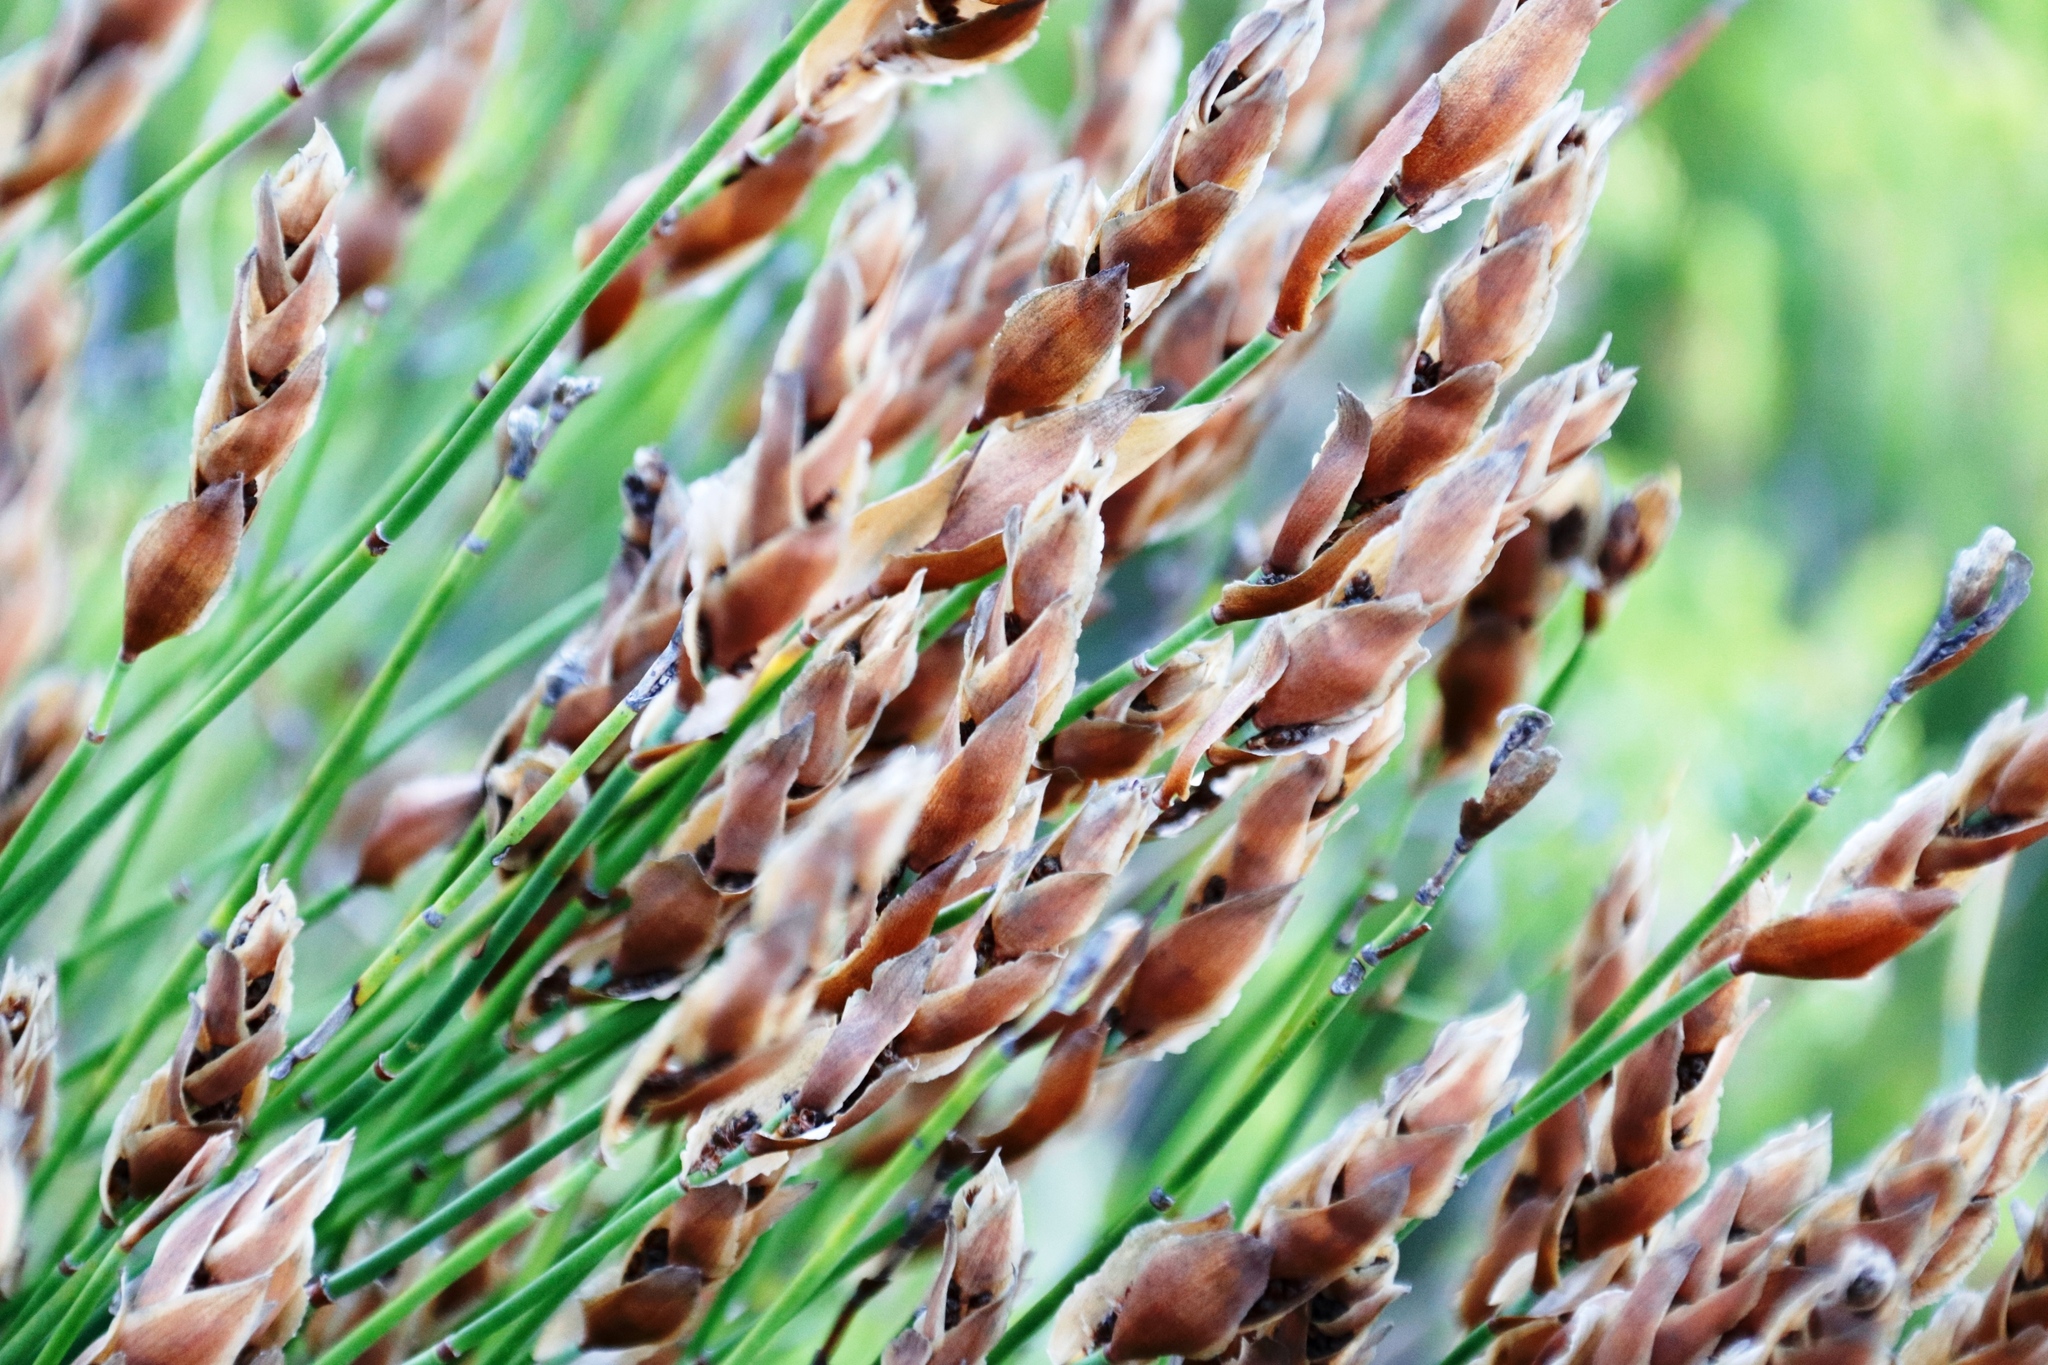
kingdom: Plantae
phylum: Tracheophyta
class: Liliopsida
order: Poales
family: Restionaceae
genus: Elegia
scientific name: Elegia racemosa
